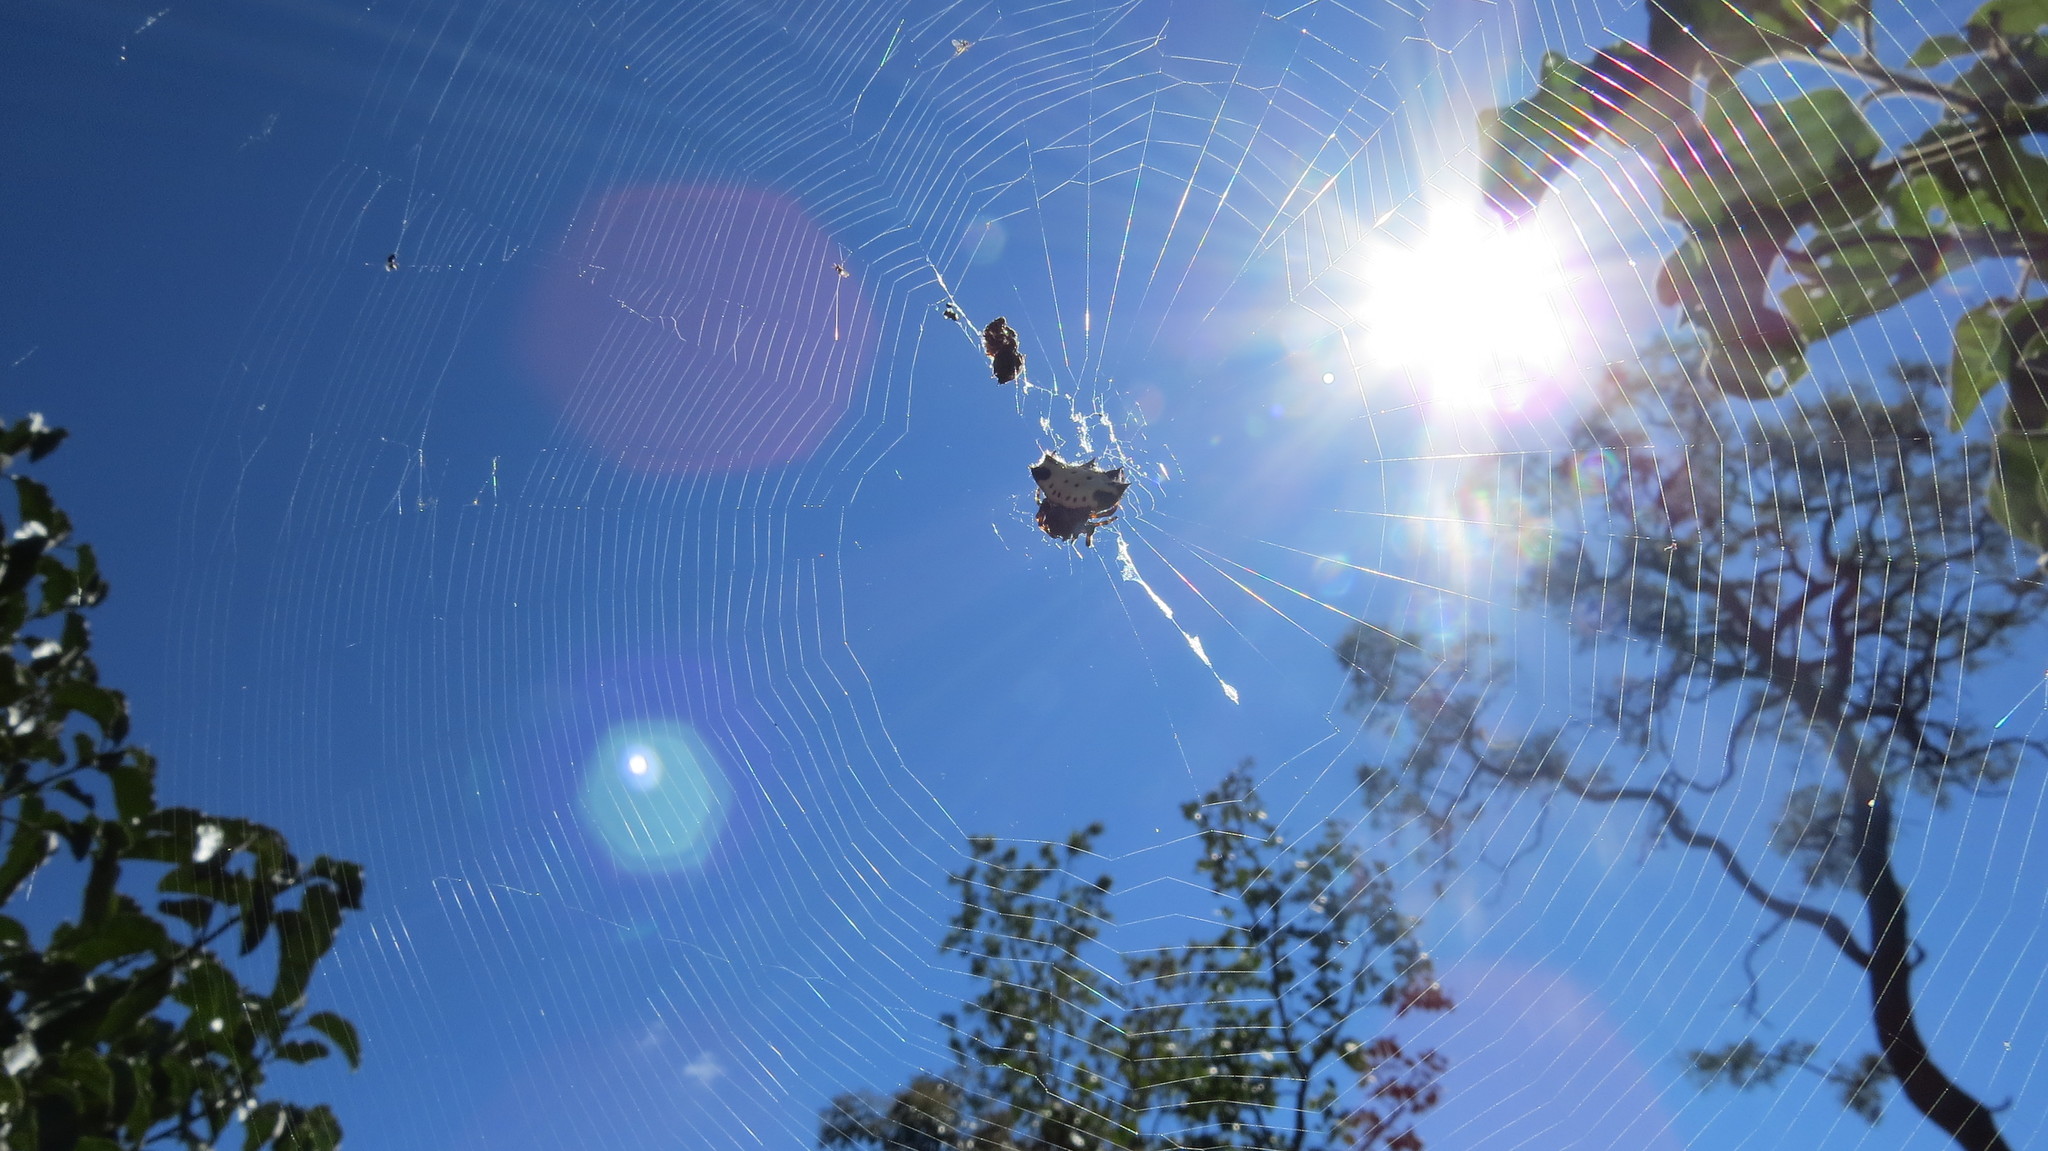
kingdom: Animalia
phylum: Arthropoda
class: Arachnida
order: Araneae
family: Araneidae
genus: Gasteracantha
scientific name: Gasteracantha cancriformis
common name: Orb weavers
